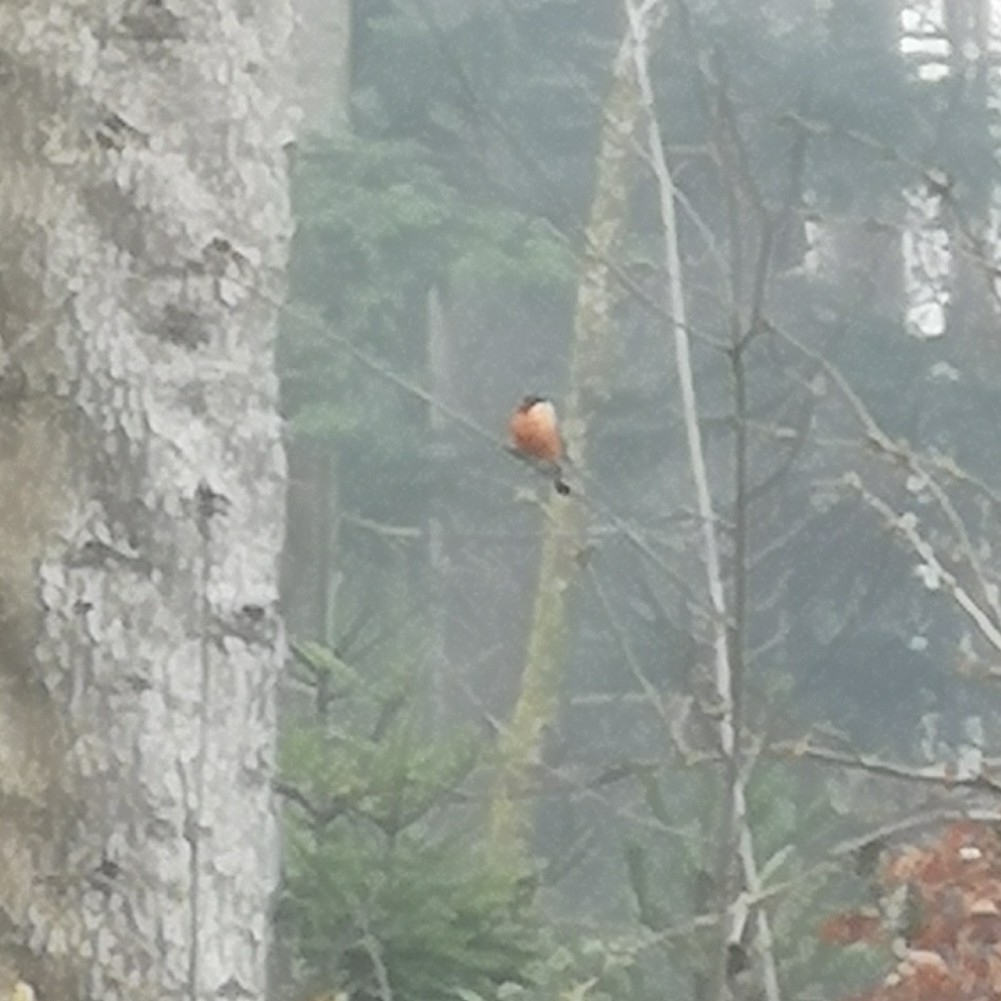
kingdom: Animalia
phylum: Chordata
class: Aves
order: Passeriformes
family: Fringillidae
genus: Pyrrhula
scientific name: Pyrrhula pyrrhula
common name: Eurasian bullfinch
